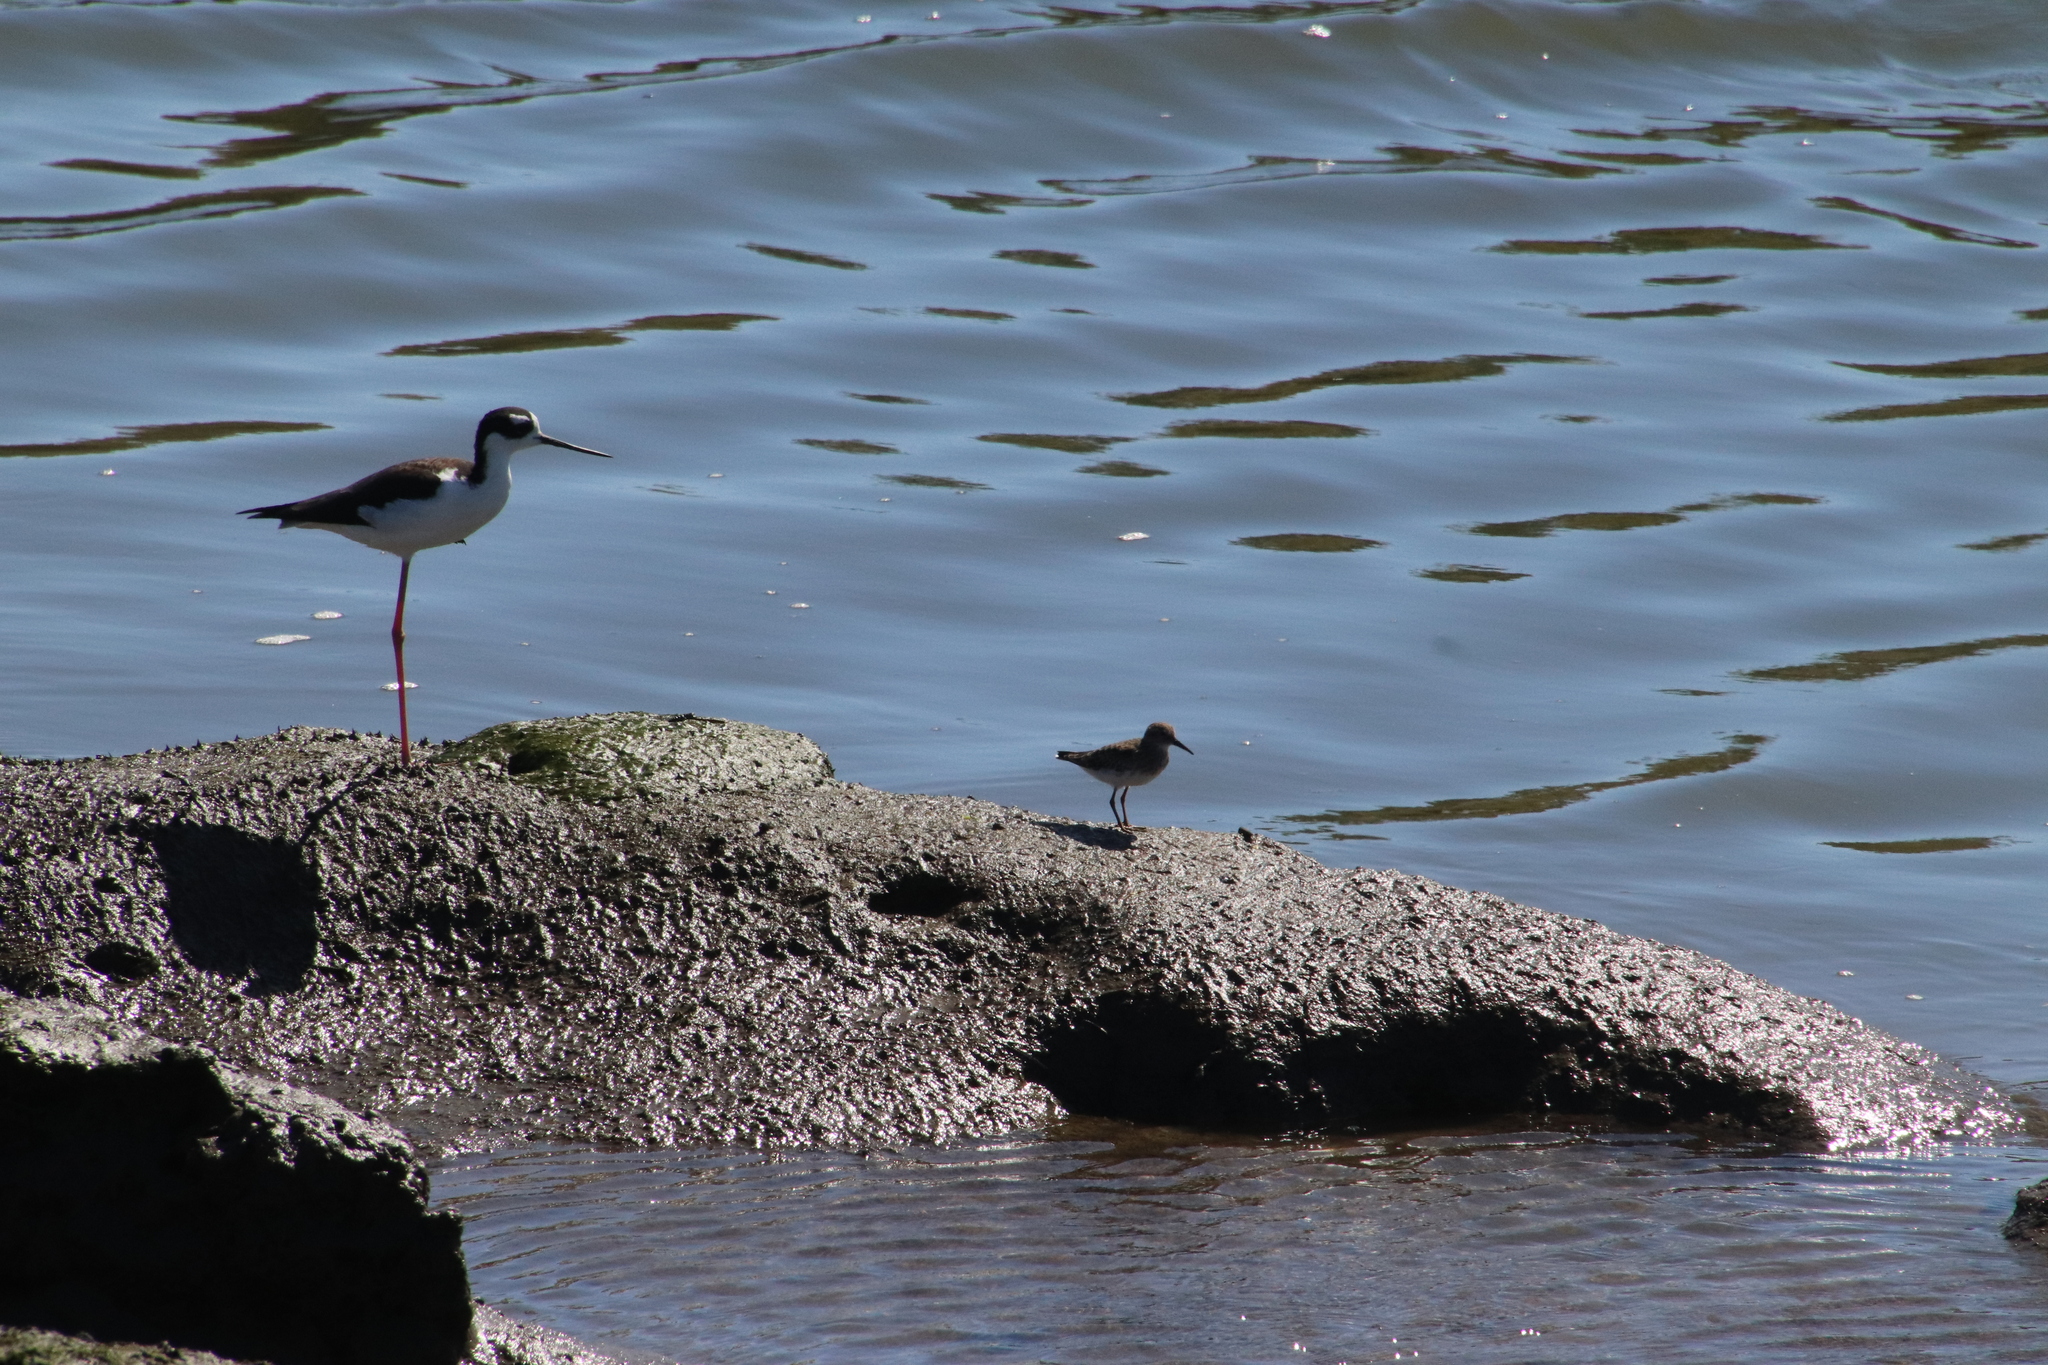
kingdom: Animalia
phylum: Chordata
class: Aves
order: Charadriiformes
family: Scolopacidae
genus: Calidris
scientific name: Calidris minutilla
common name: Least sandpiper
